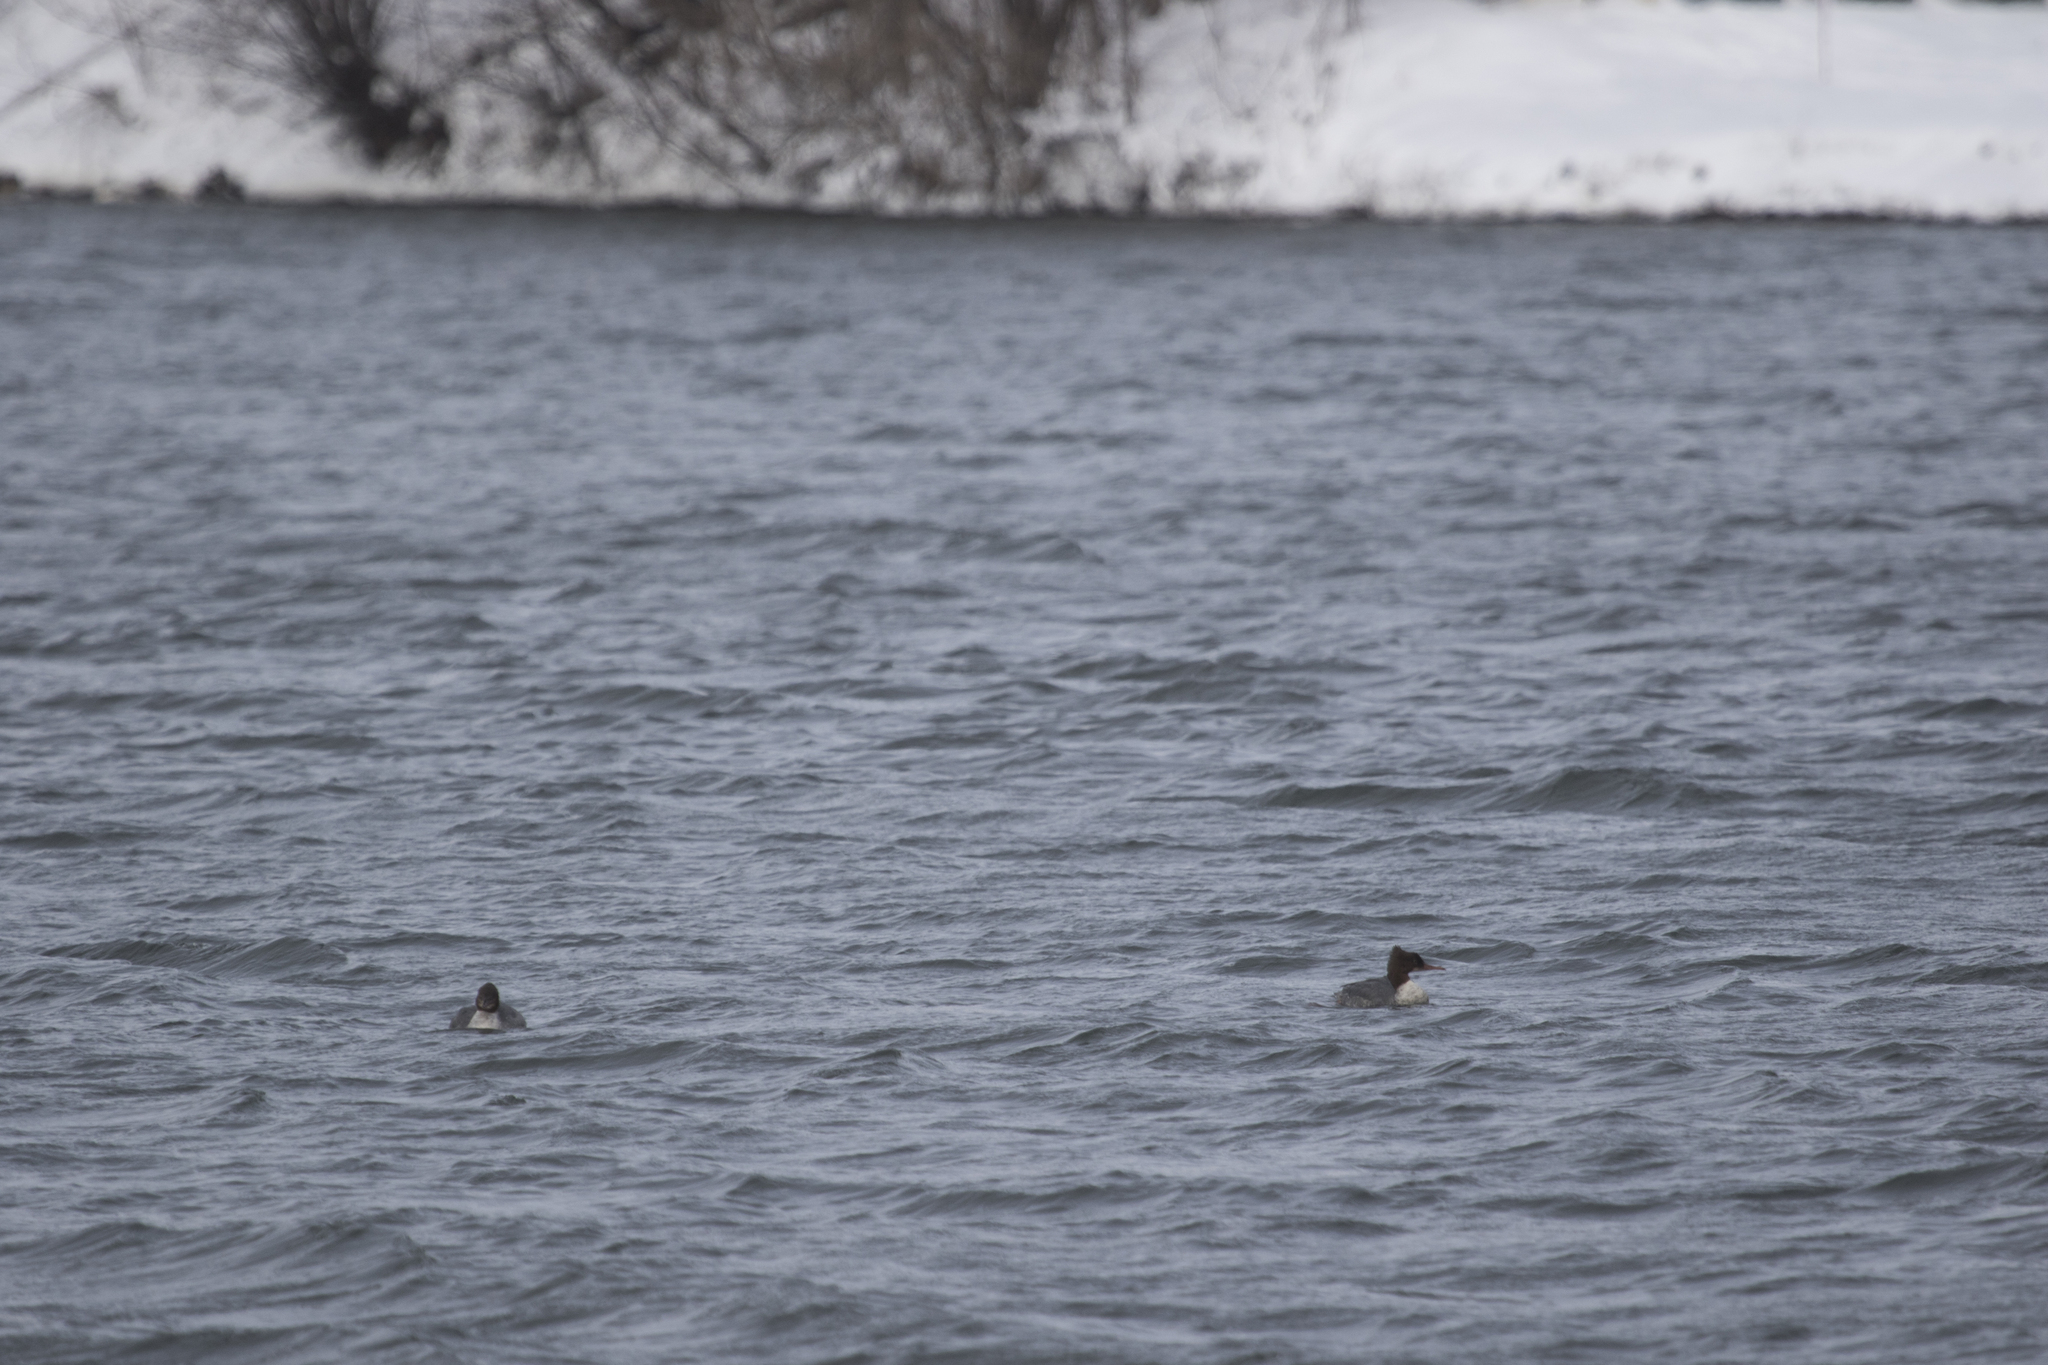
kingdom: Animalia
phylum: Chordata
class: Aves
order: Anseriformes
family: Anatidae
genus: Mergus
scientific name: Mergus merganser
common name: Common merganser
